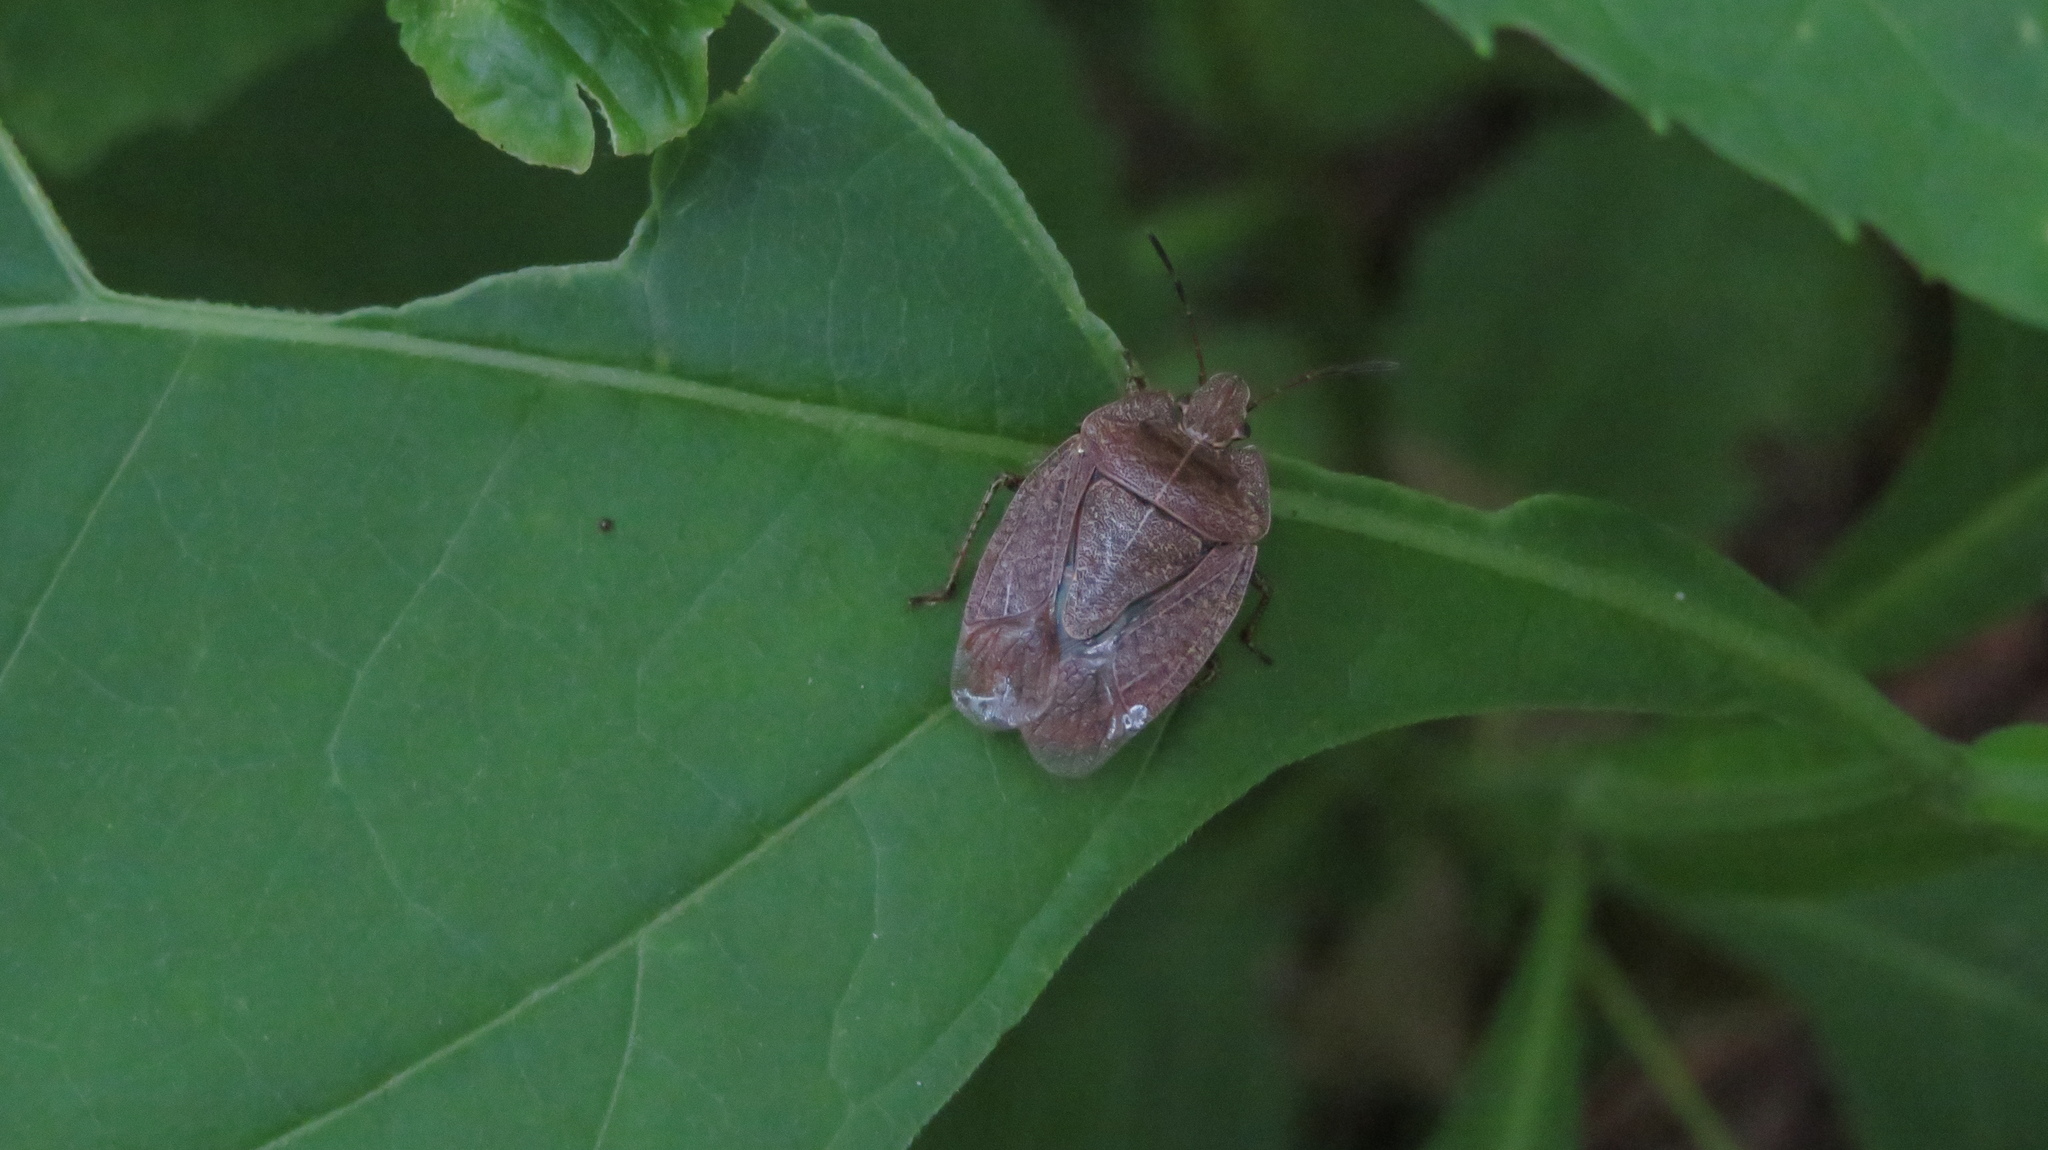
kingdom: Animalia
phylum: Arthropoda
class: Insecta
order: Hemiptera
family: Pentatomidae
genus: Menecles
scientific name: Menecles insertus
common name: Elf shoe stink bug
